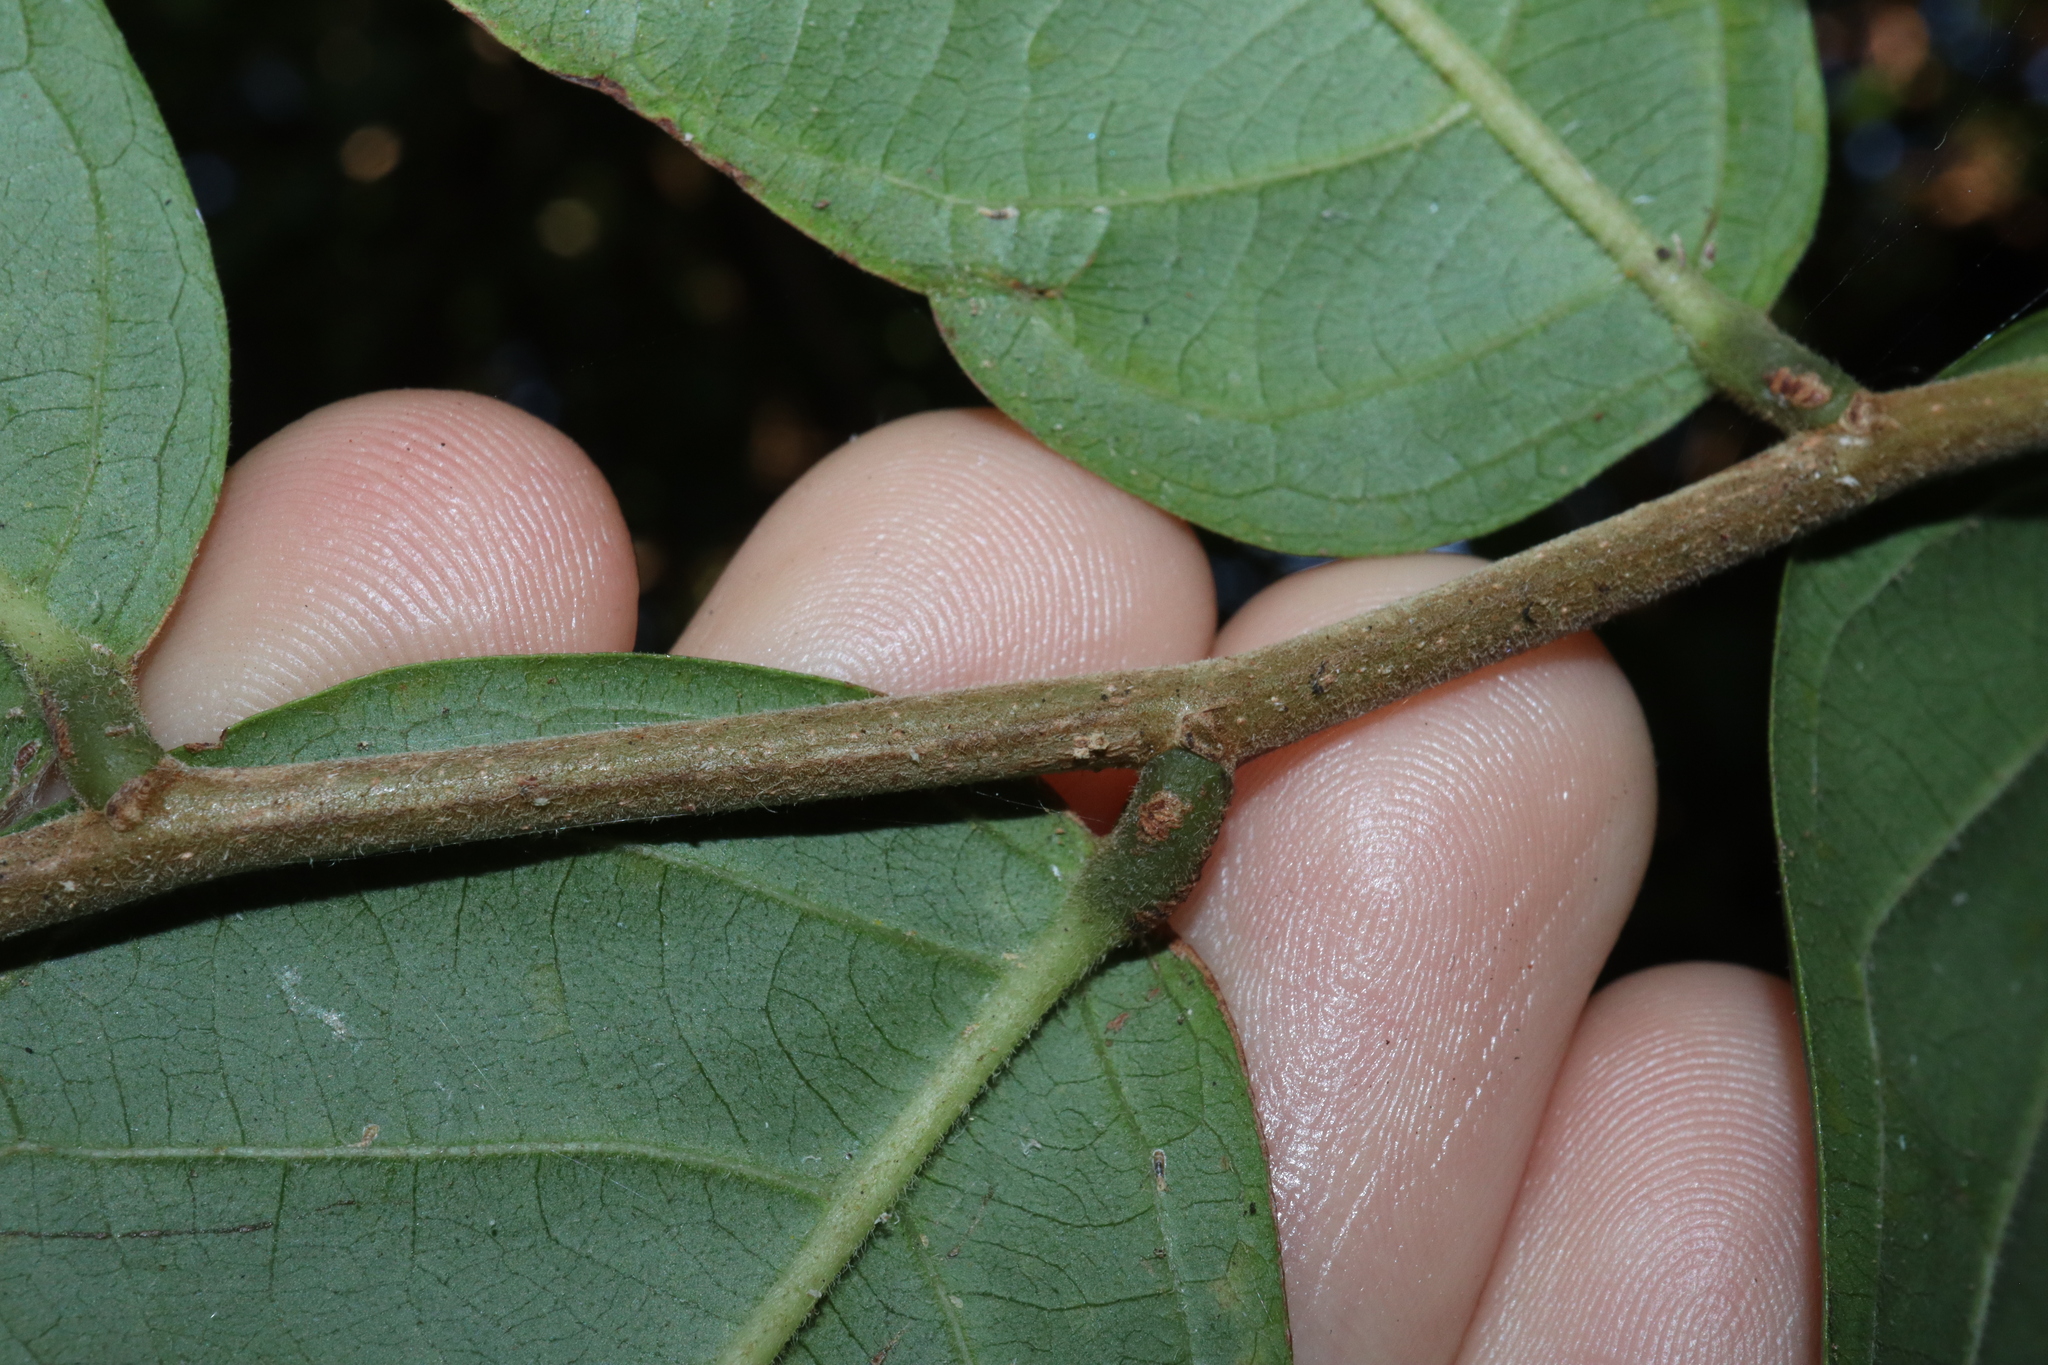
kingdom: Plantae
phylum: Tracheophyta
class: Magnoliopsida
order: Malpighiales
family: Phyllanthaceae
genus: Glochidion
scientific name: Glochidion philippicum
